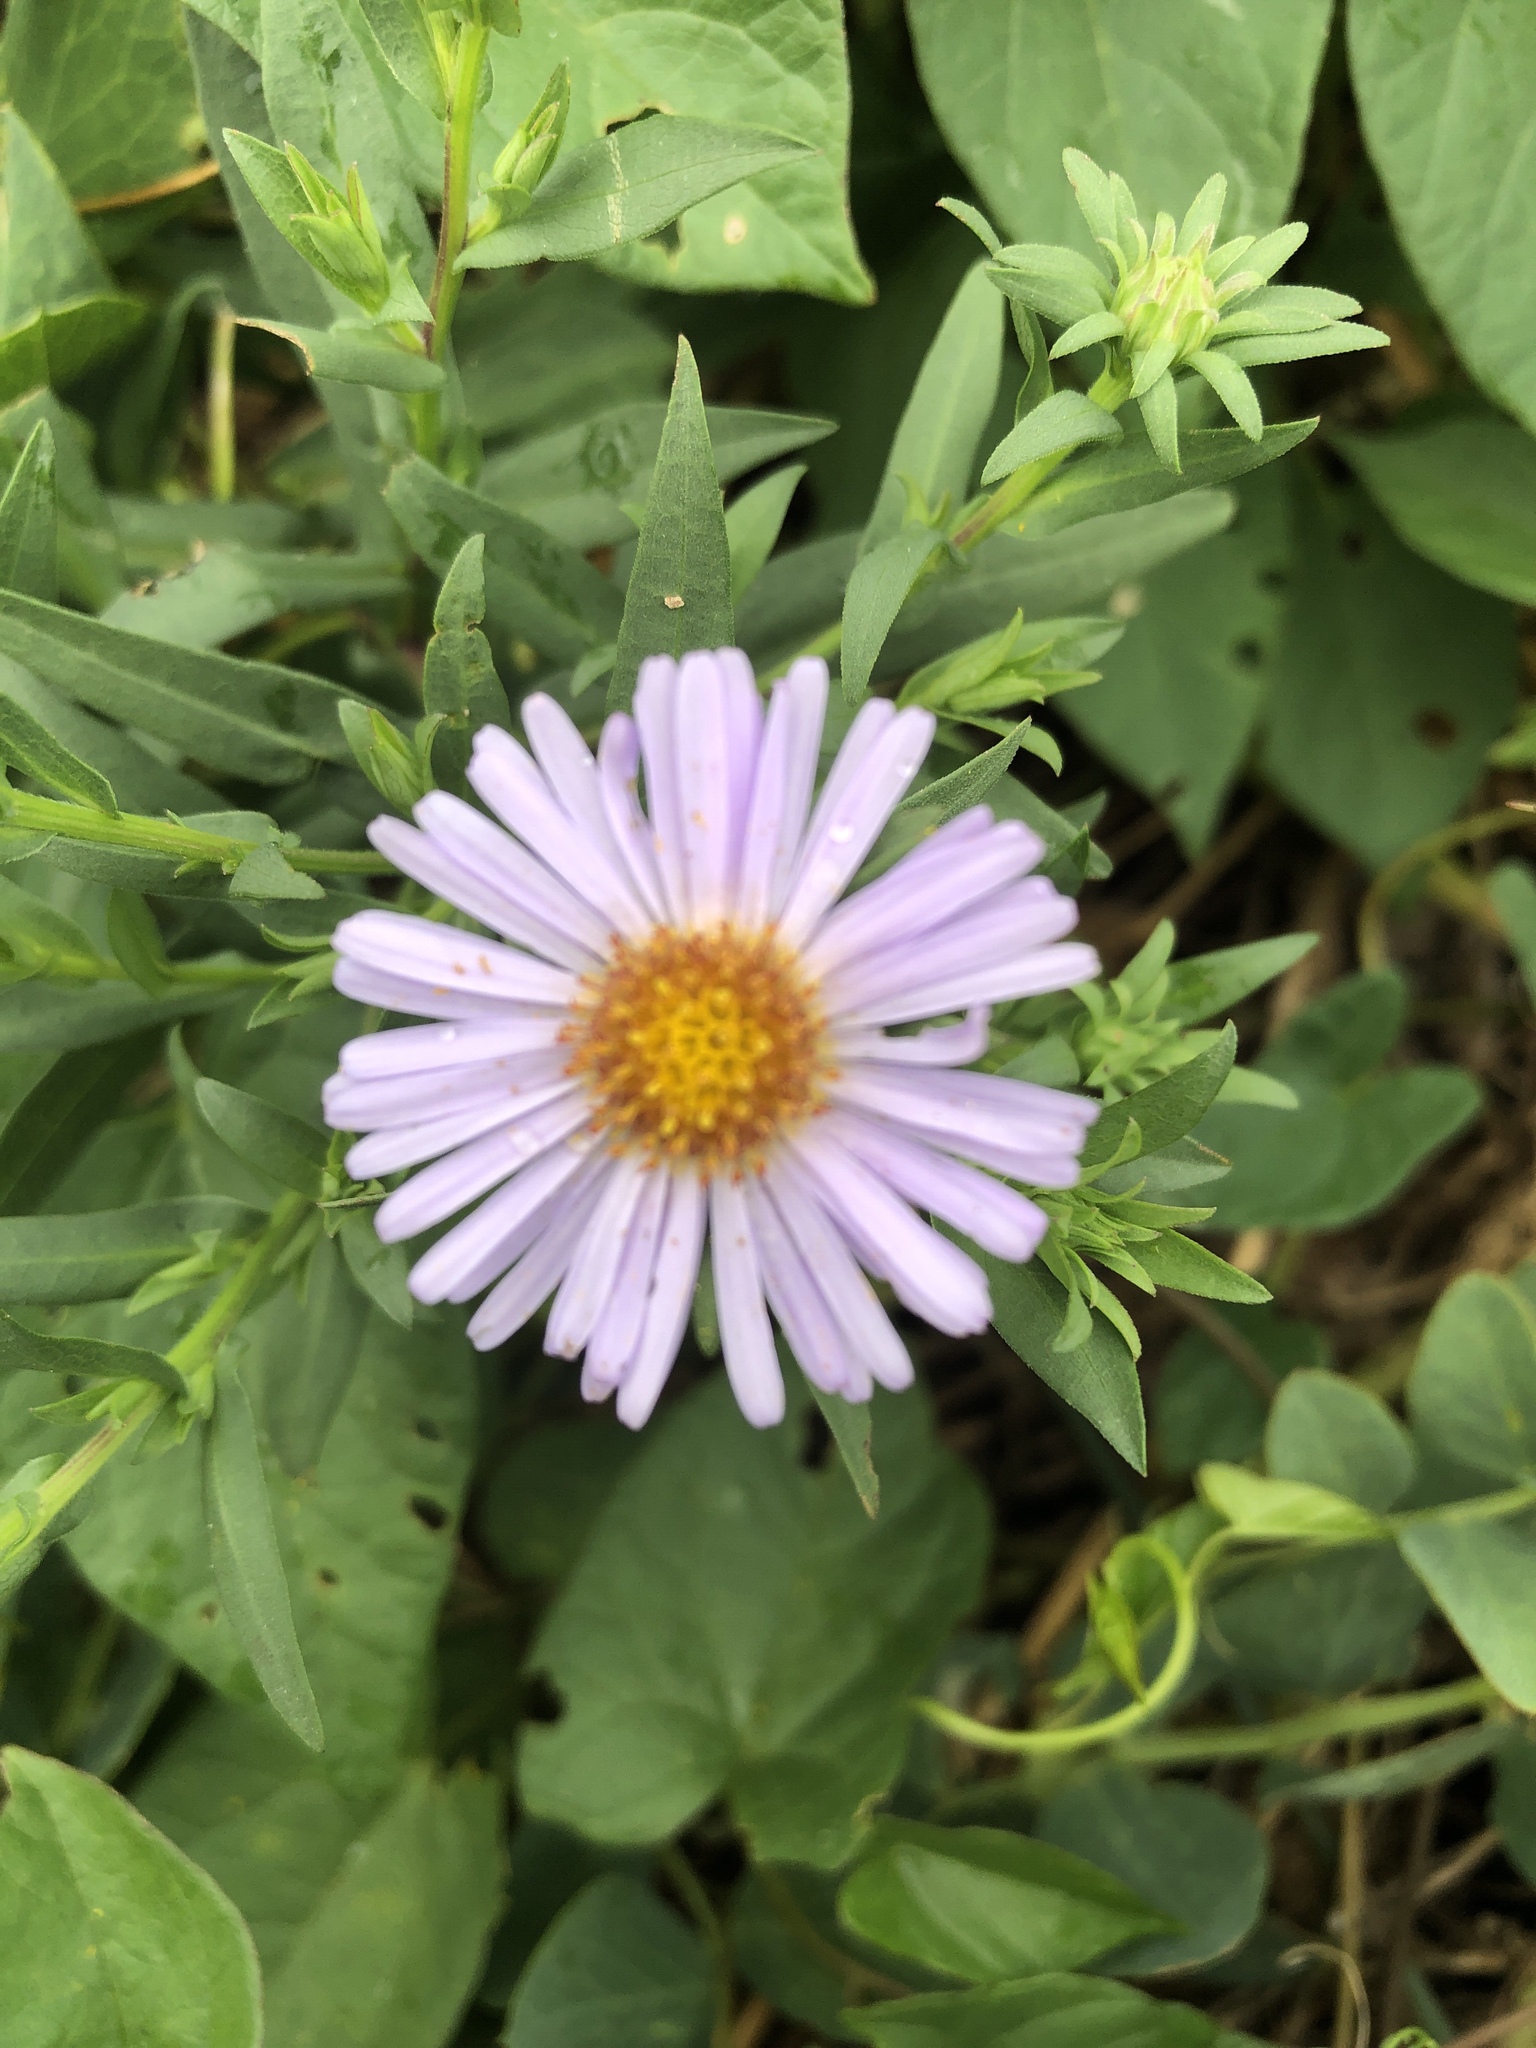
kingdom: Plantae
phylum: Tracheophyta
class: Magnoliopsida
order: Asterales
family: Asteraceae
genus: Symphyotrichum
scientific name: Symphyotrichum novi-belgii
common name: Michaelmas daisy
